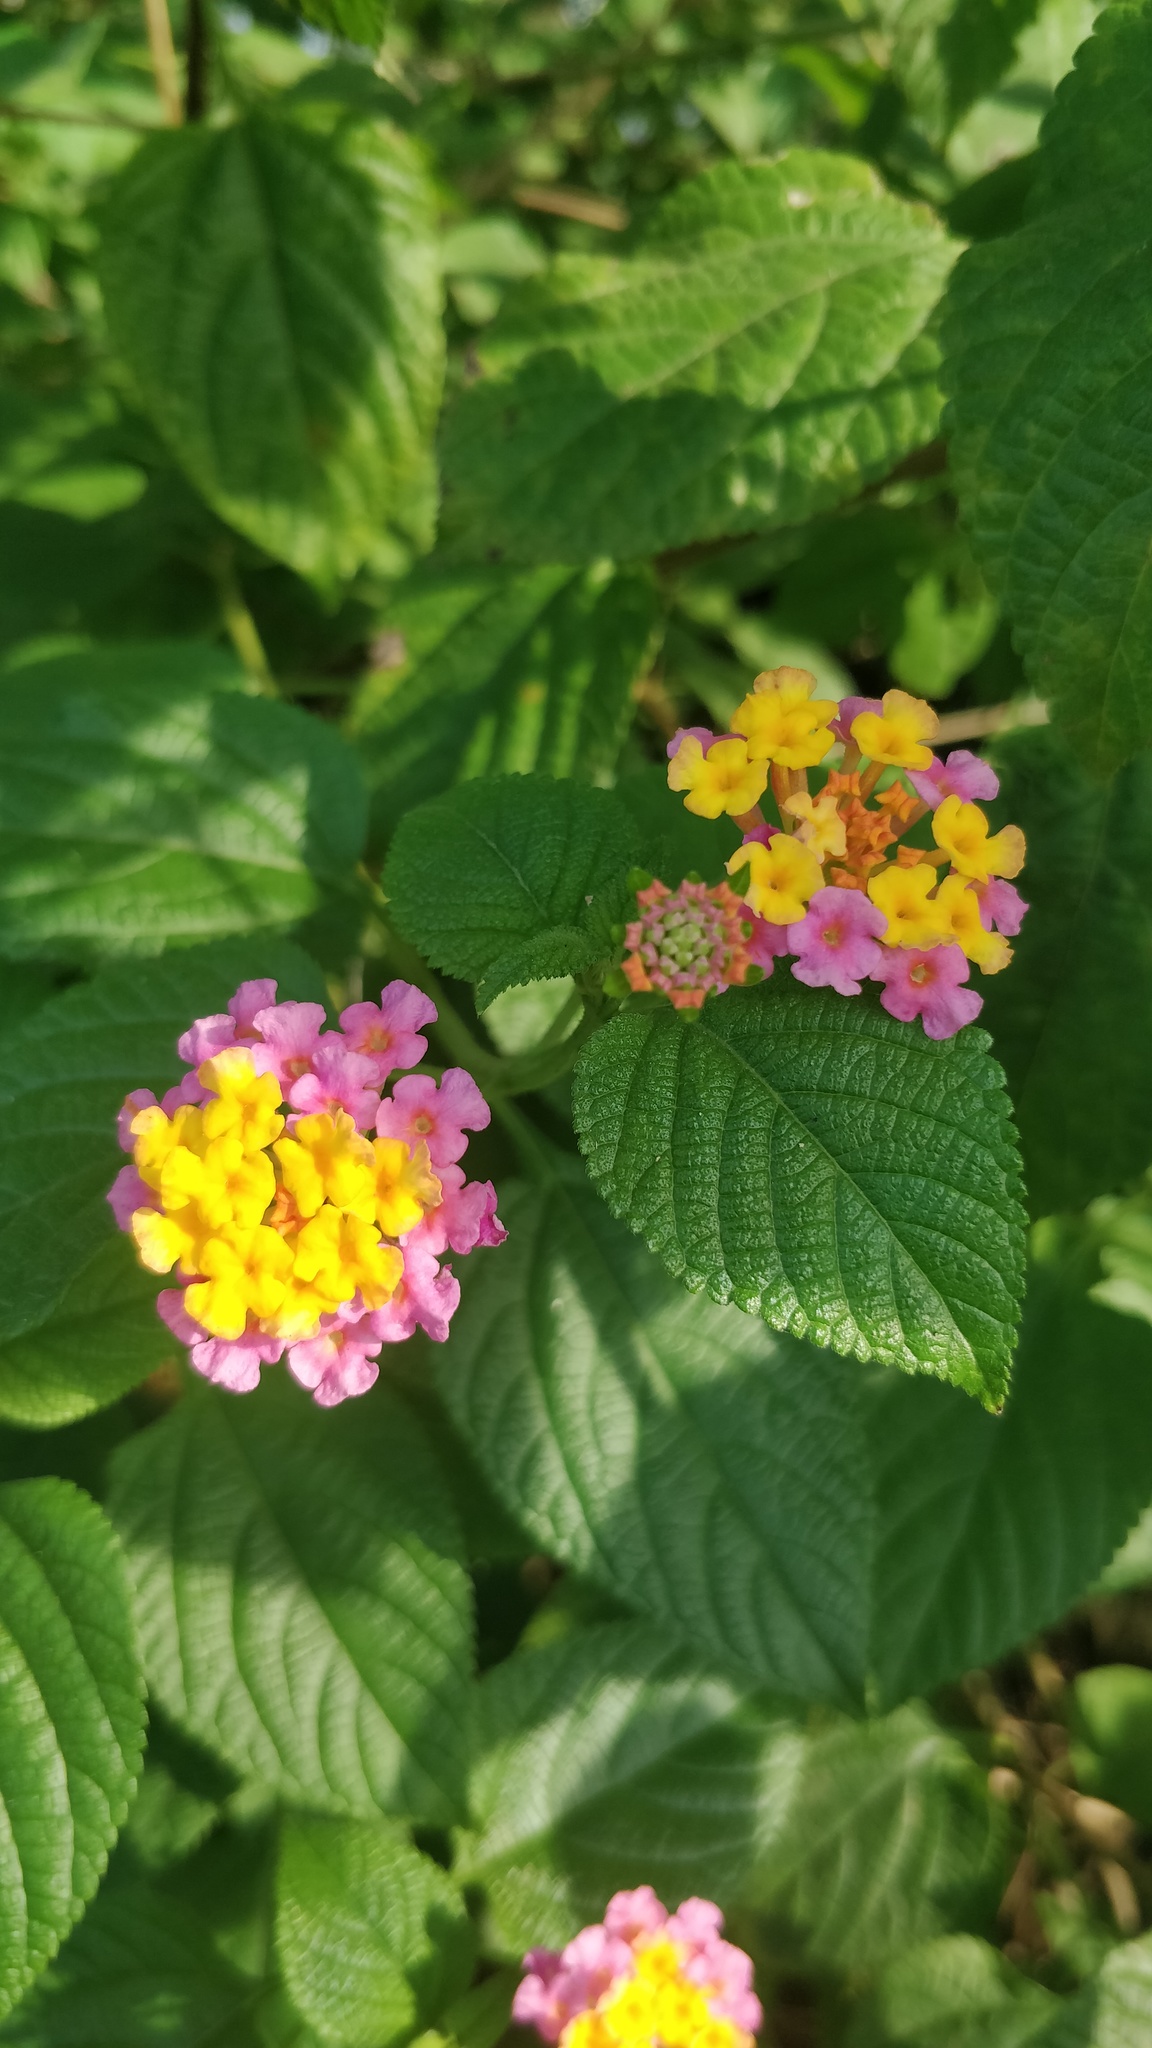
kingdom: Plantae
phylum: Tracheophyta
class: Magnoliopsida
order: Lamiales
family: Verbenaceae
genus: Lantana
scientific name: Lantana camara
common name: Lantana
